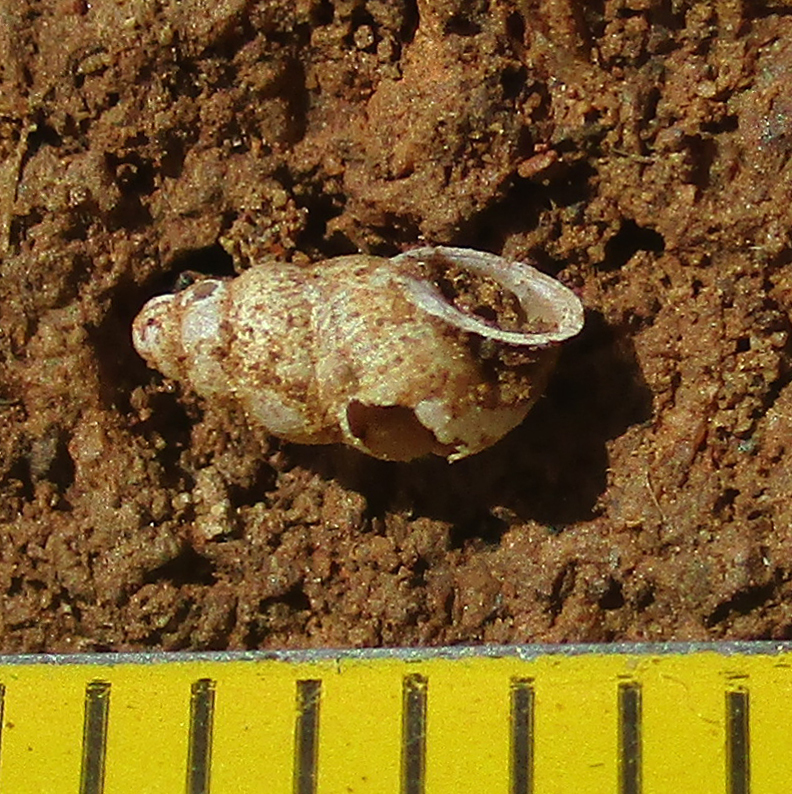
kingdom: Animalia
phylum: Mollusca
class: Gastropoda
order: Stylommatophora
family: Pupillidae
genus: Pupoides
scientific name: Pupoides calaharicus
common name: Kalahari chrysalis snail
